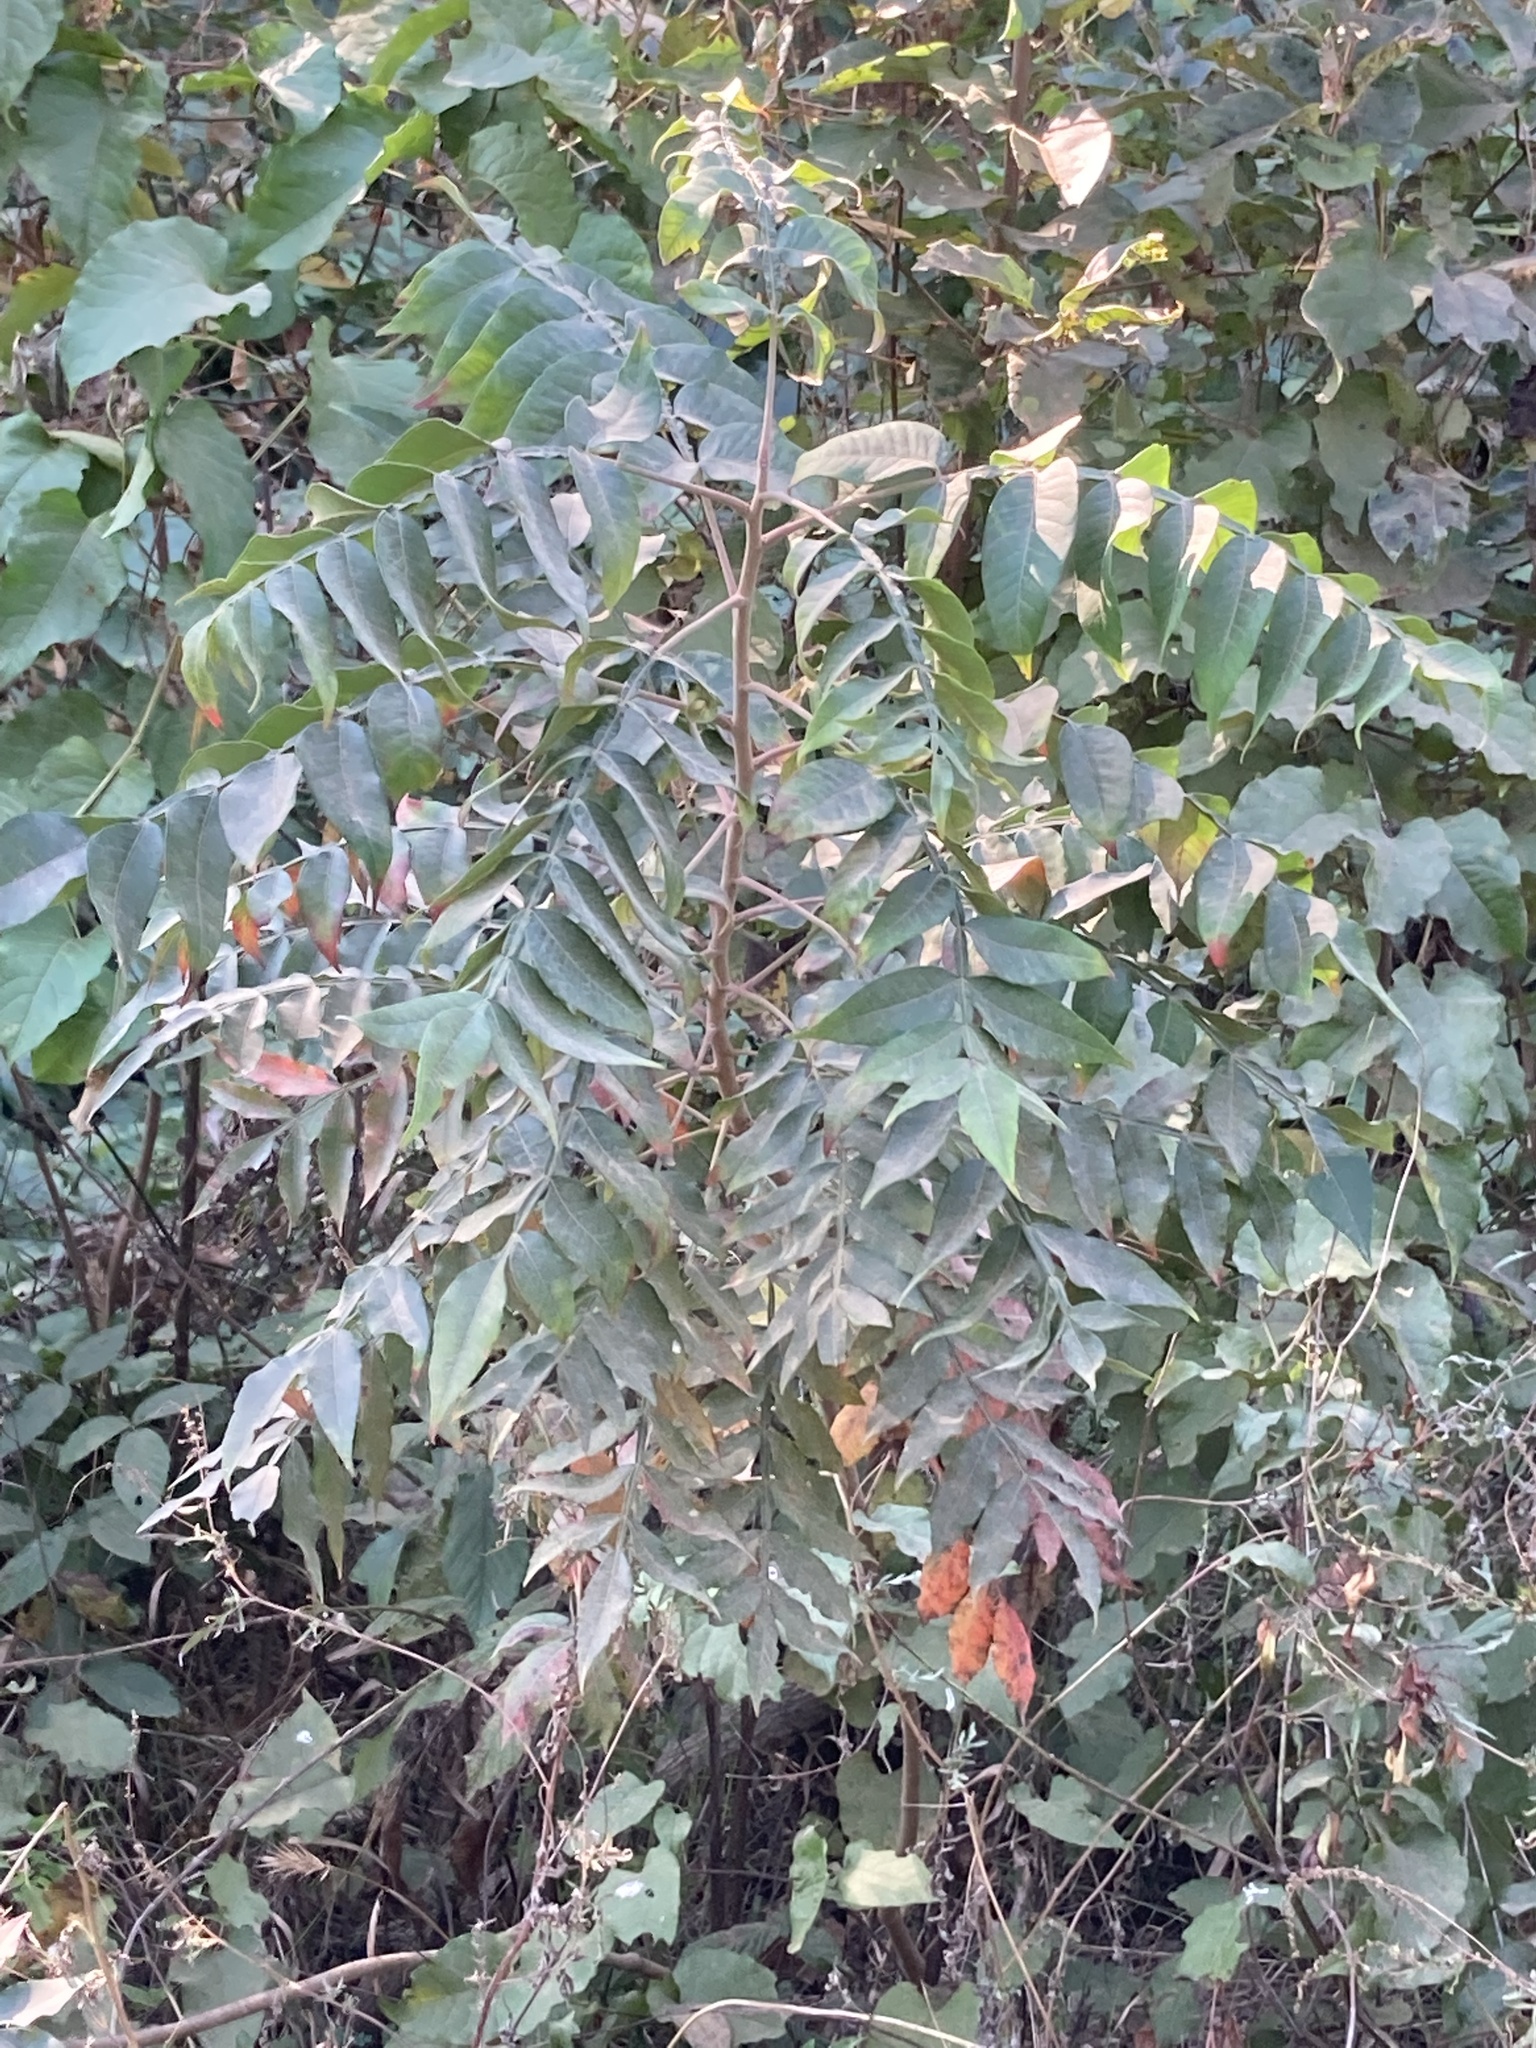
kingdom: Plantae
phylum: Tracheophyta
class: Magnoliopsida
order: Sapindales
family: Anacardiaceae
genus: Rhus
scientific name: Rhus copallina
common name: Shining sumac
